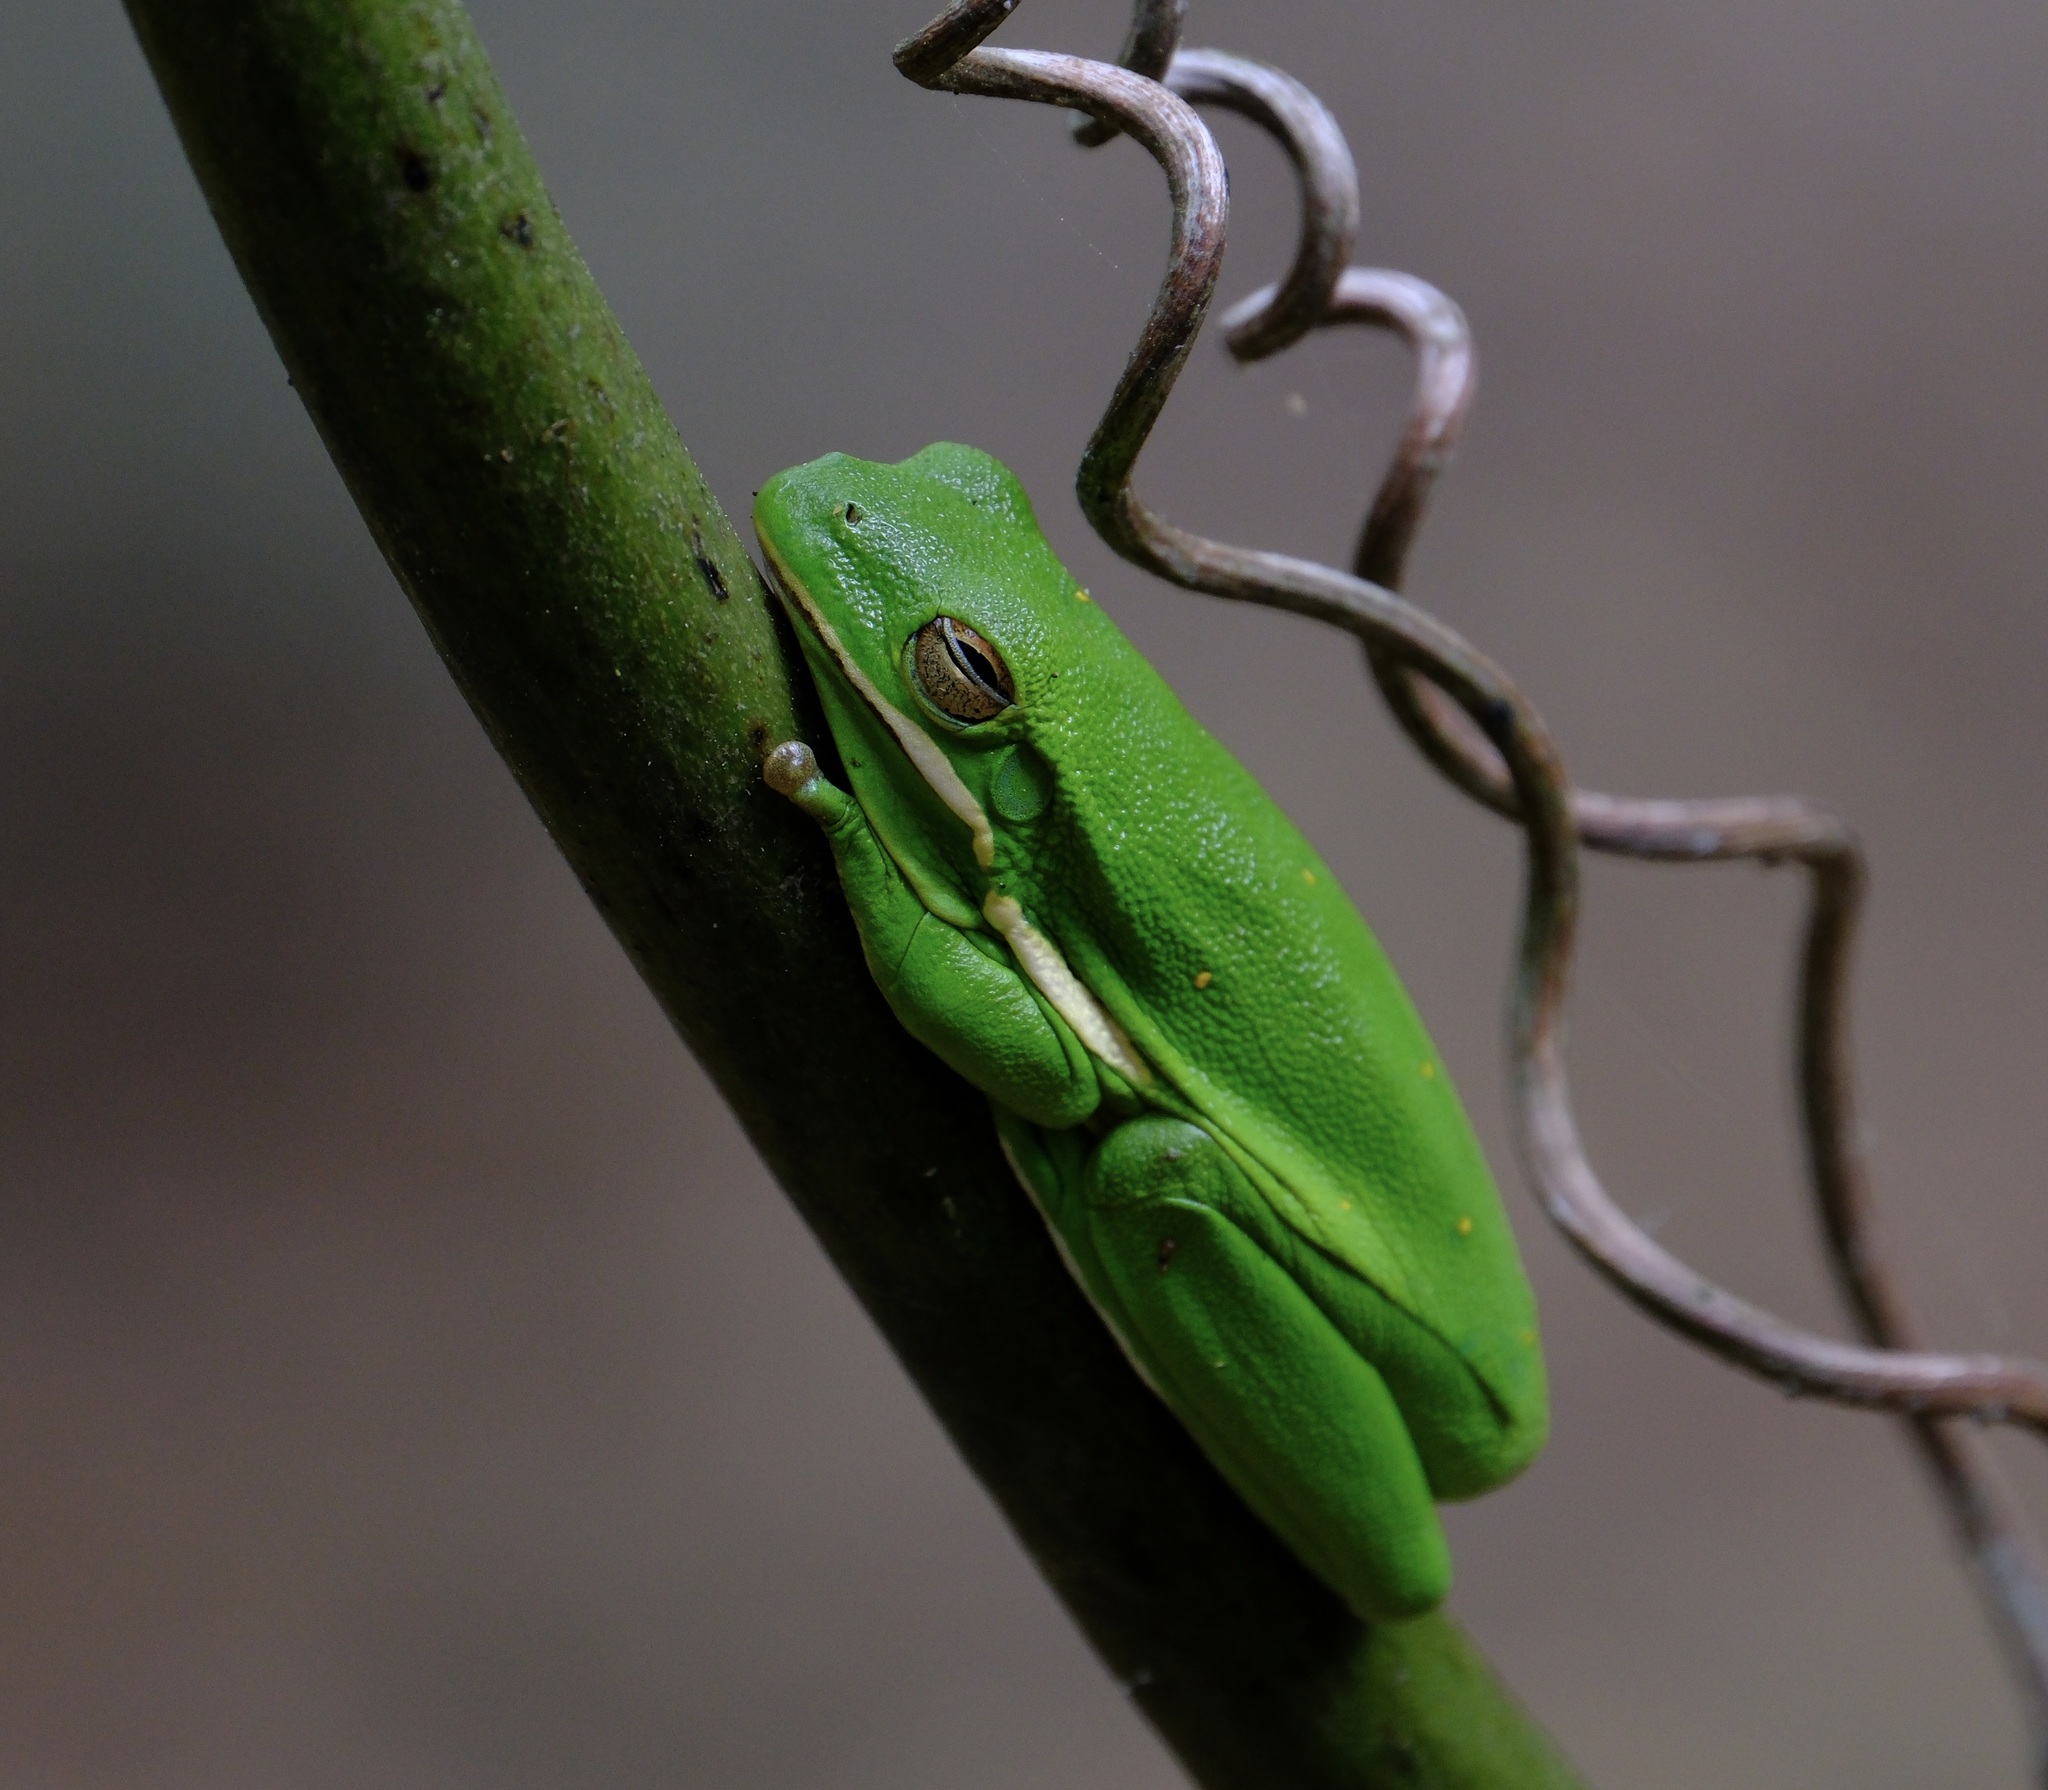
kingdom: Animalia
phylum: Chordata
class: Amphibia
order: Anura
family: Hylidae
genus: Dryophytes
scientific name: Dryophytes cinereus
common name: Green treefrog
